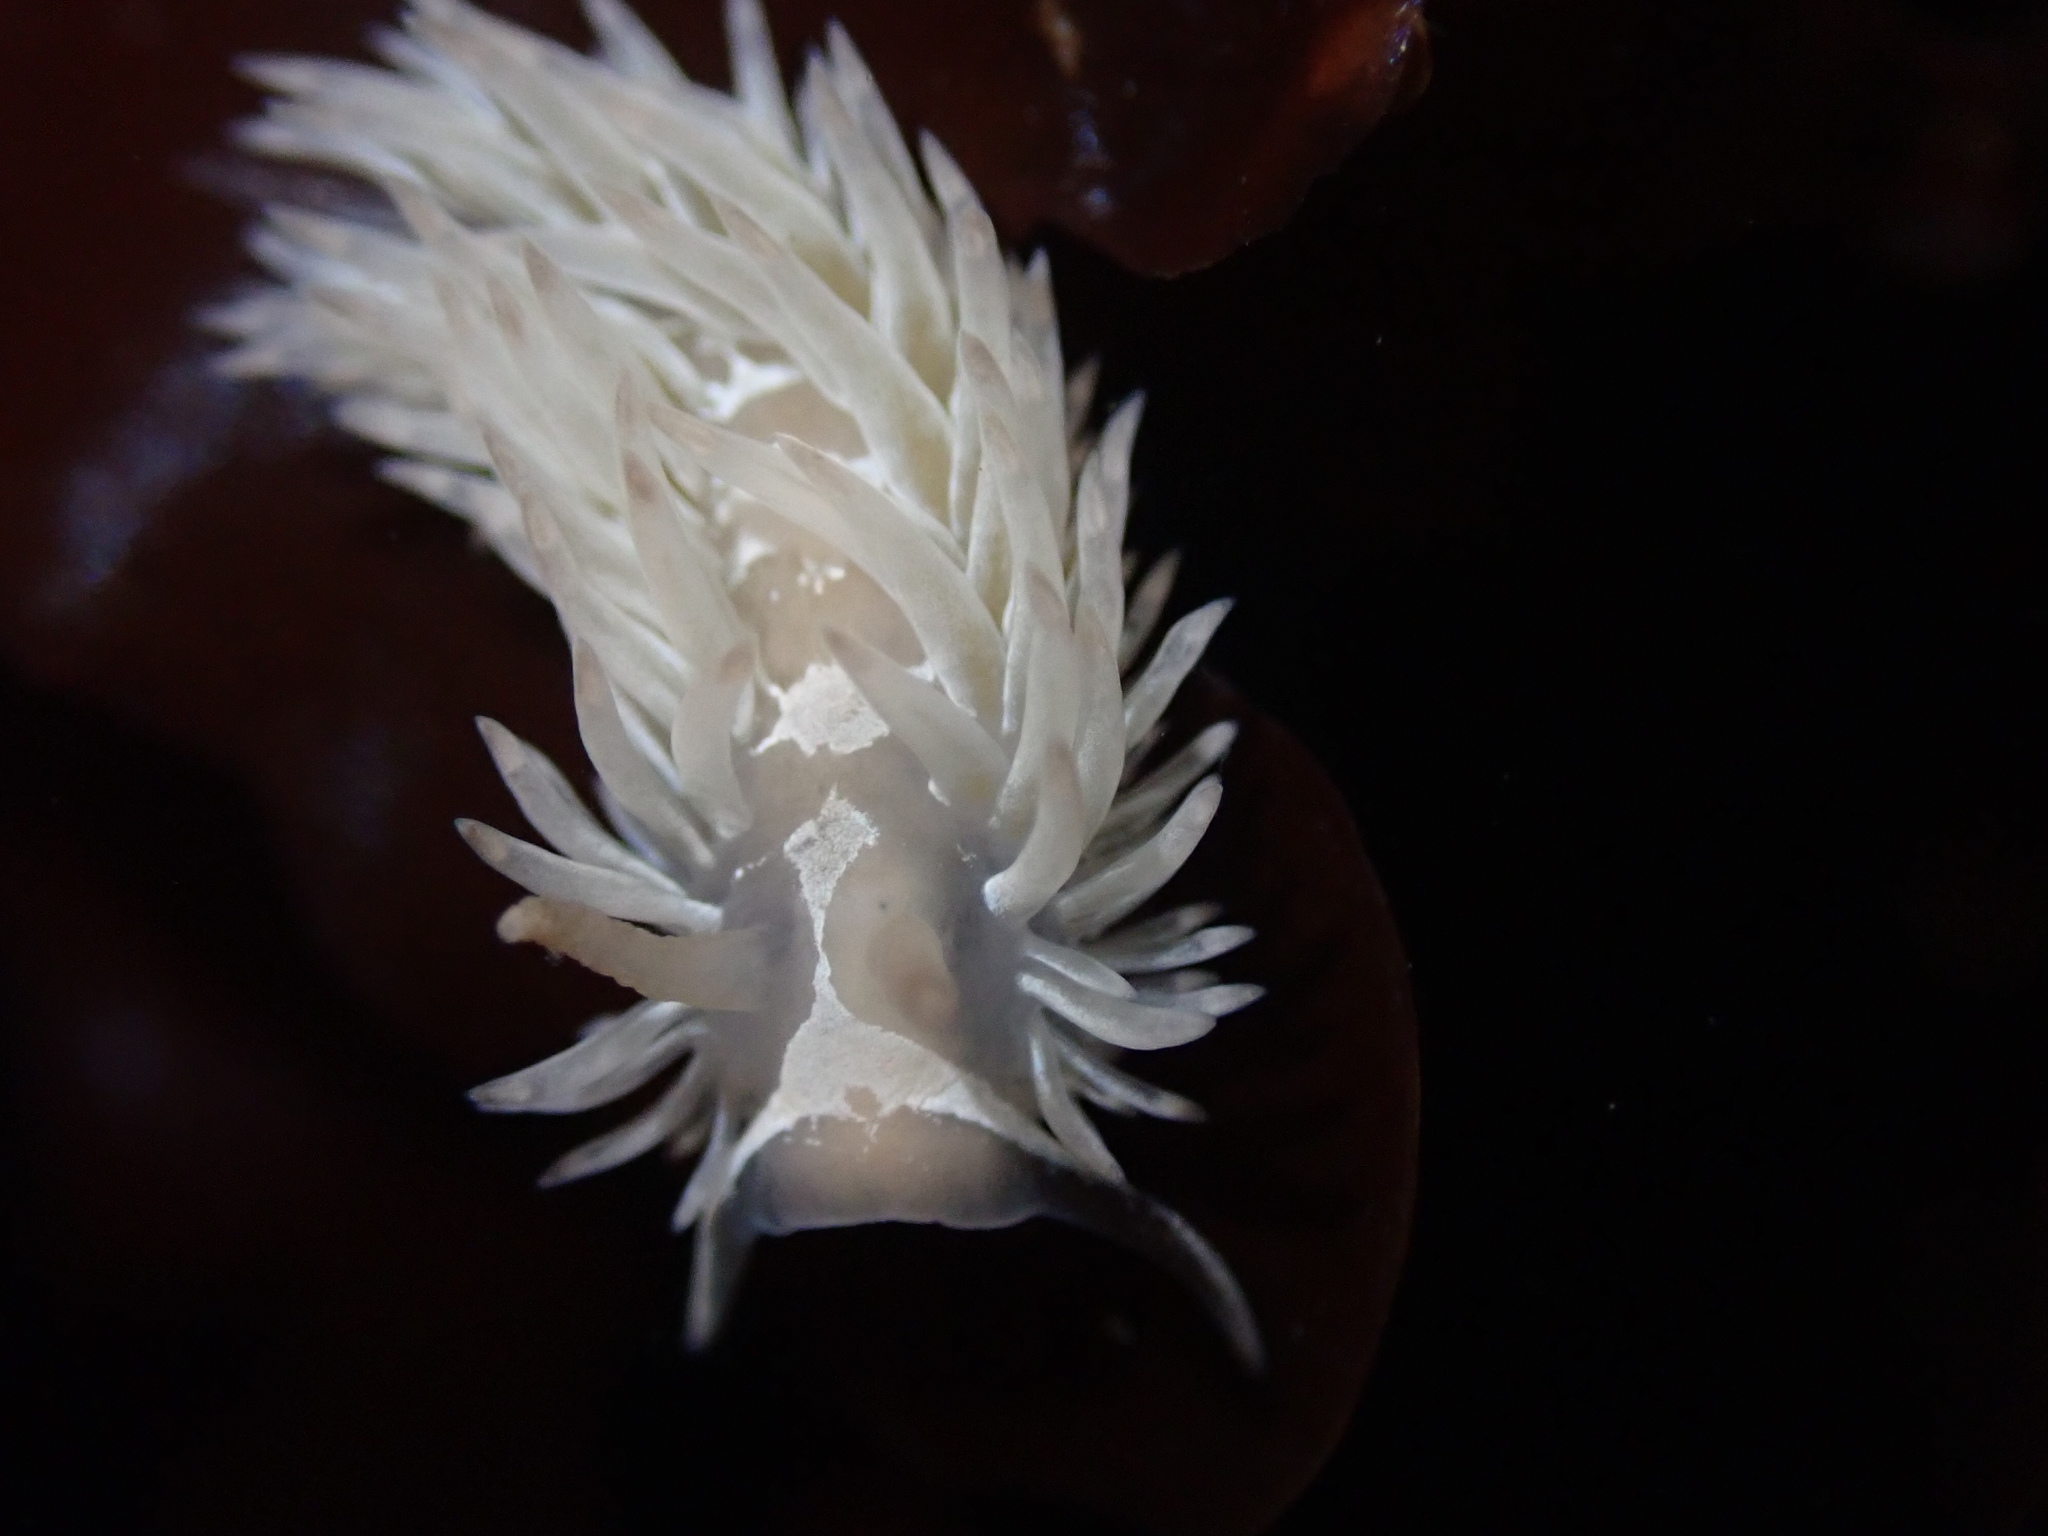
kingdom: Animalia
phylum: Mollusca
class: Gastropoda
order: Nudibranchia
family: Aeolidiidae
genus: Aeolidia
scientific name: Aeolidia loui
